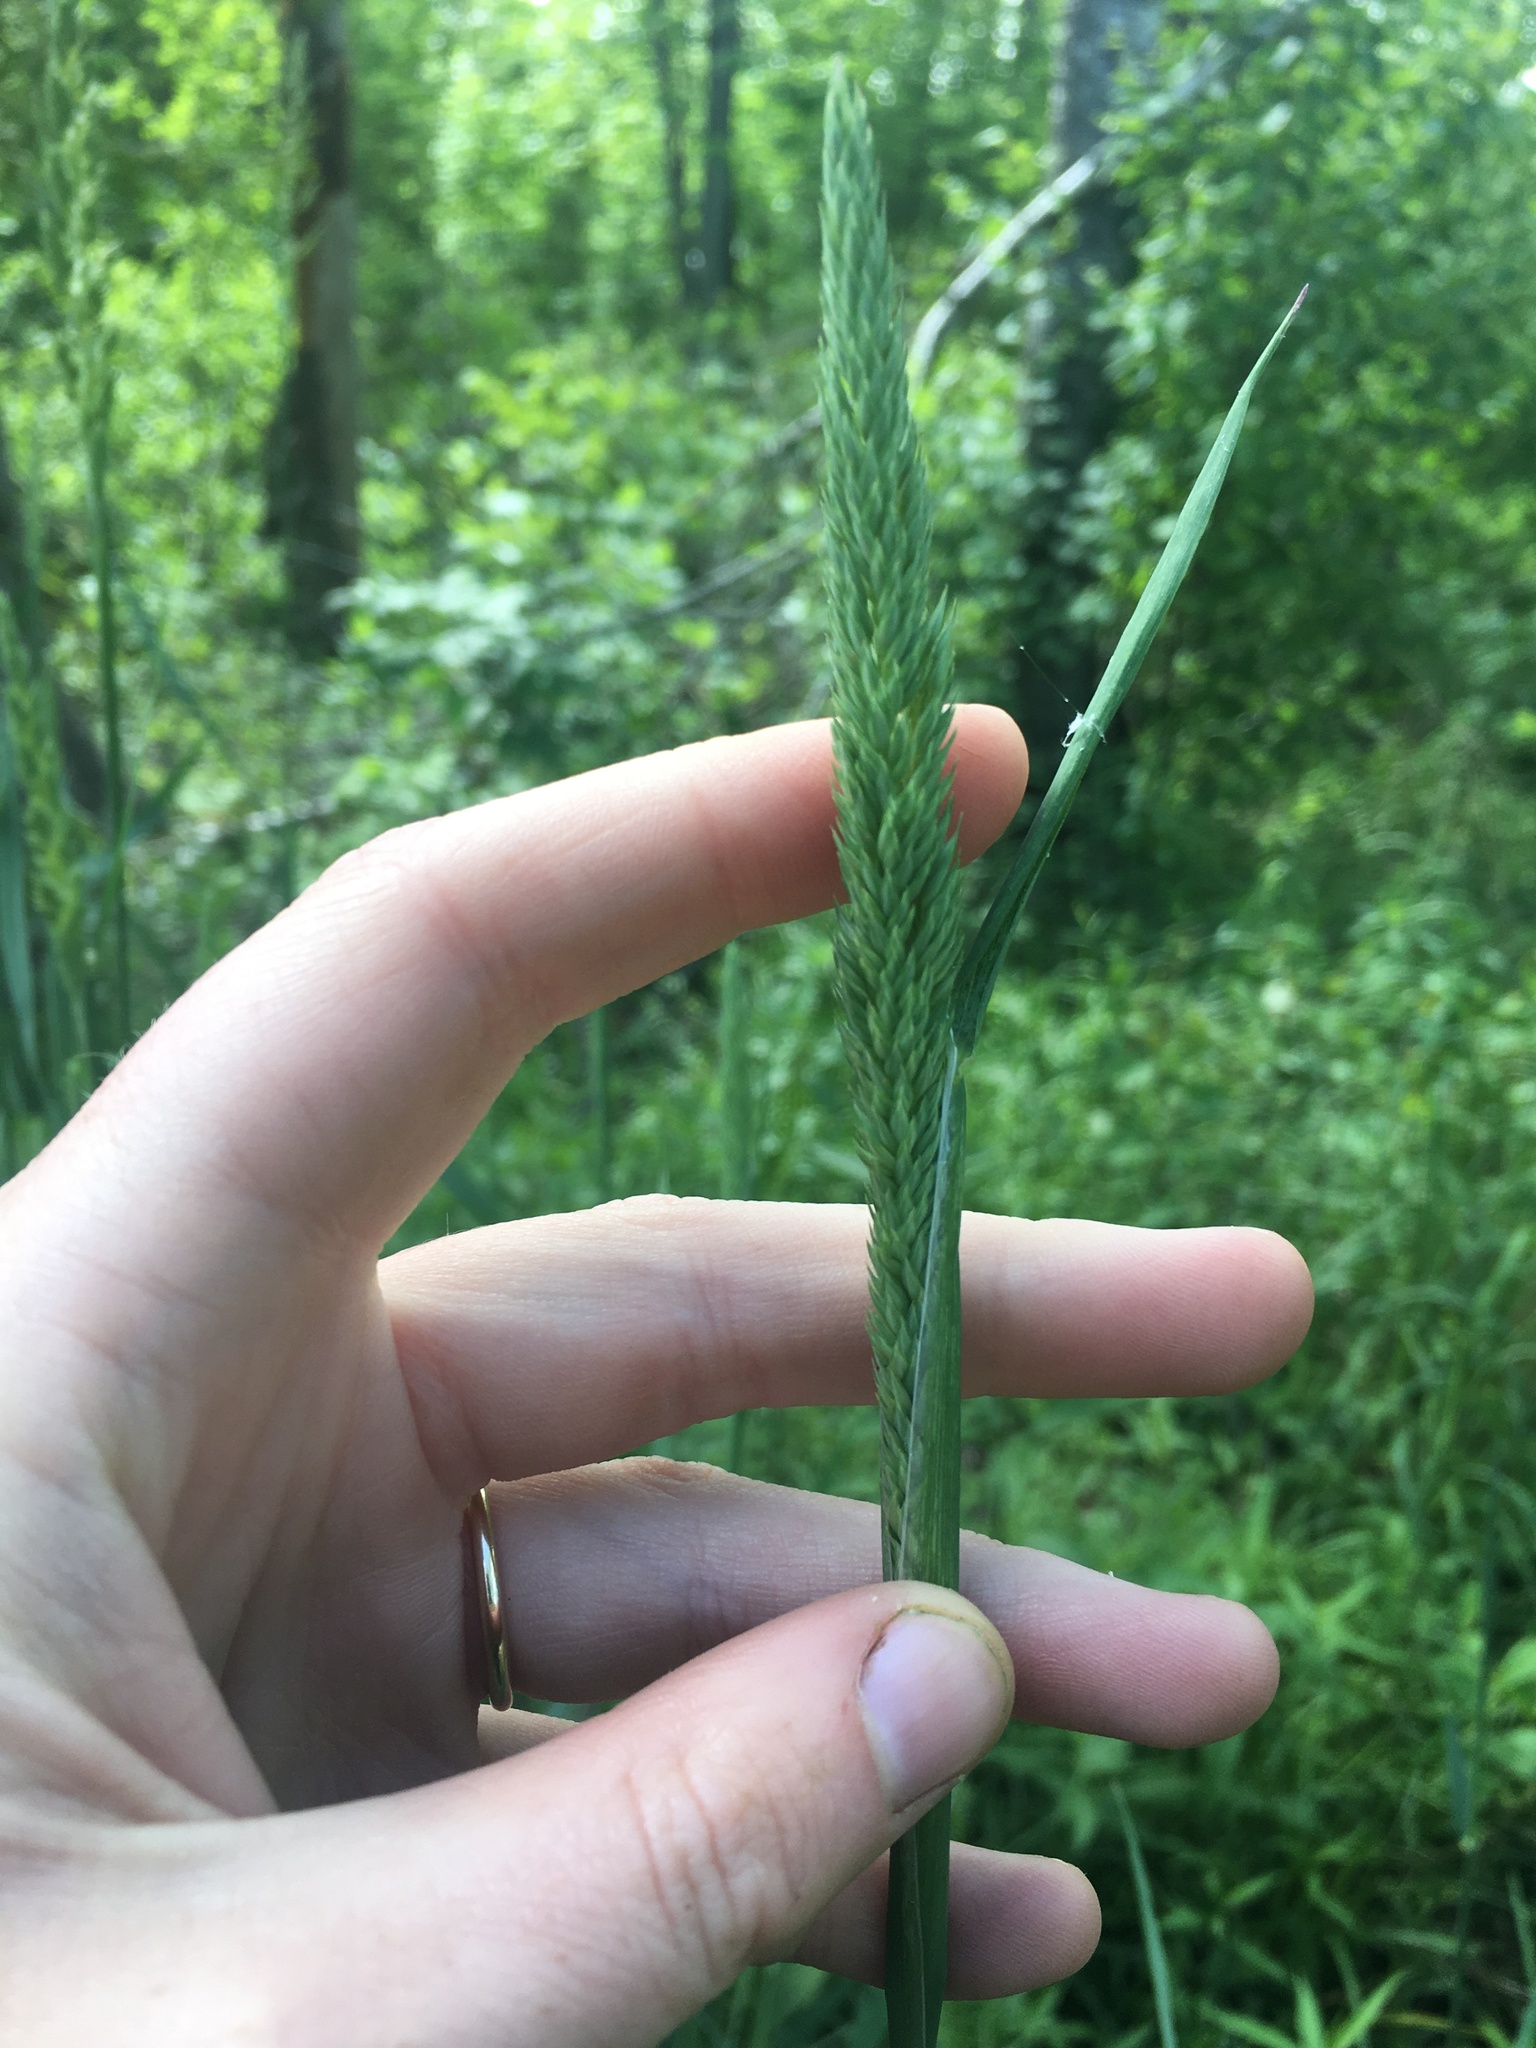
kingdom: Plantae
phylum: Tracheophyta
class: Liliopsida
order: Poales
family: Poaceae
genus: Phalaris
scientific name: Phalaris arundinacea
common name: Reed canary-grass
